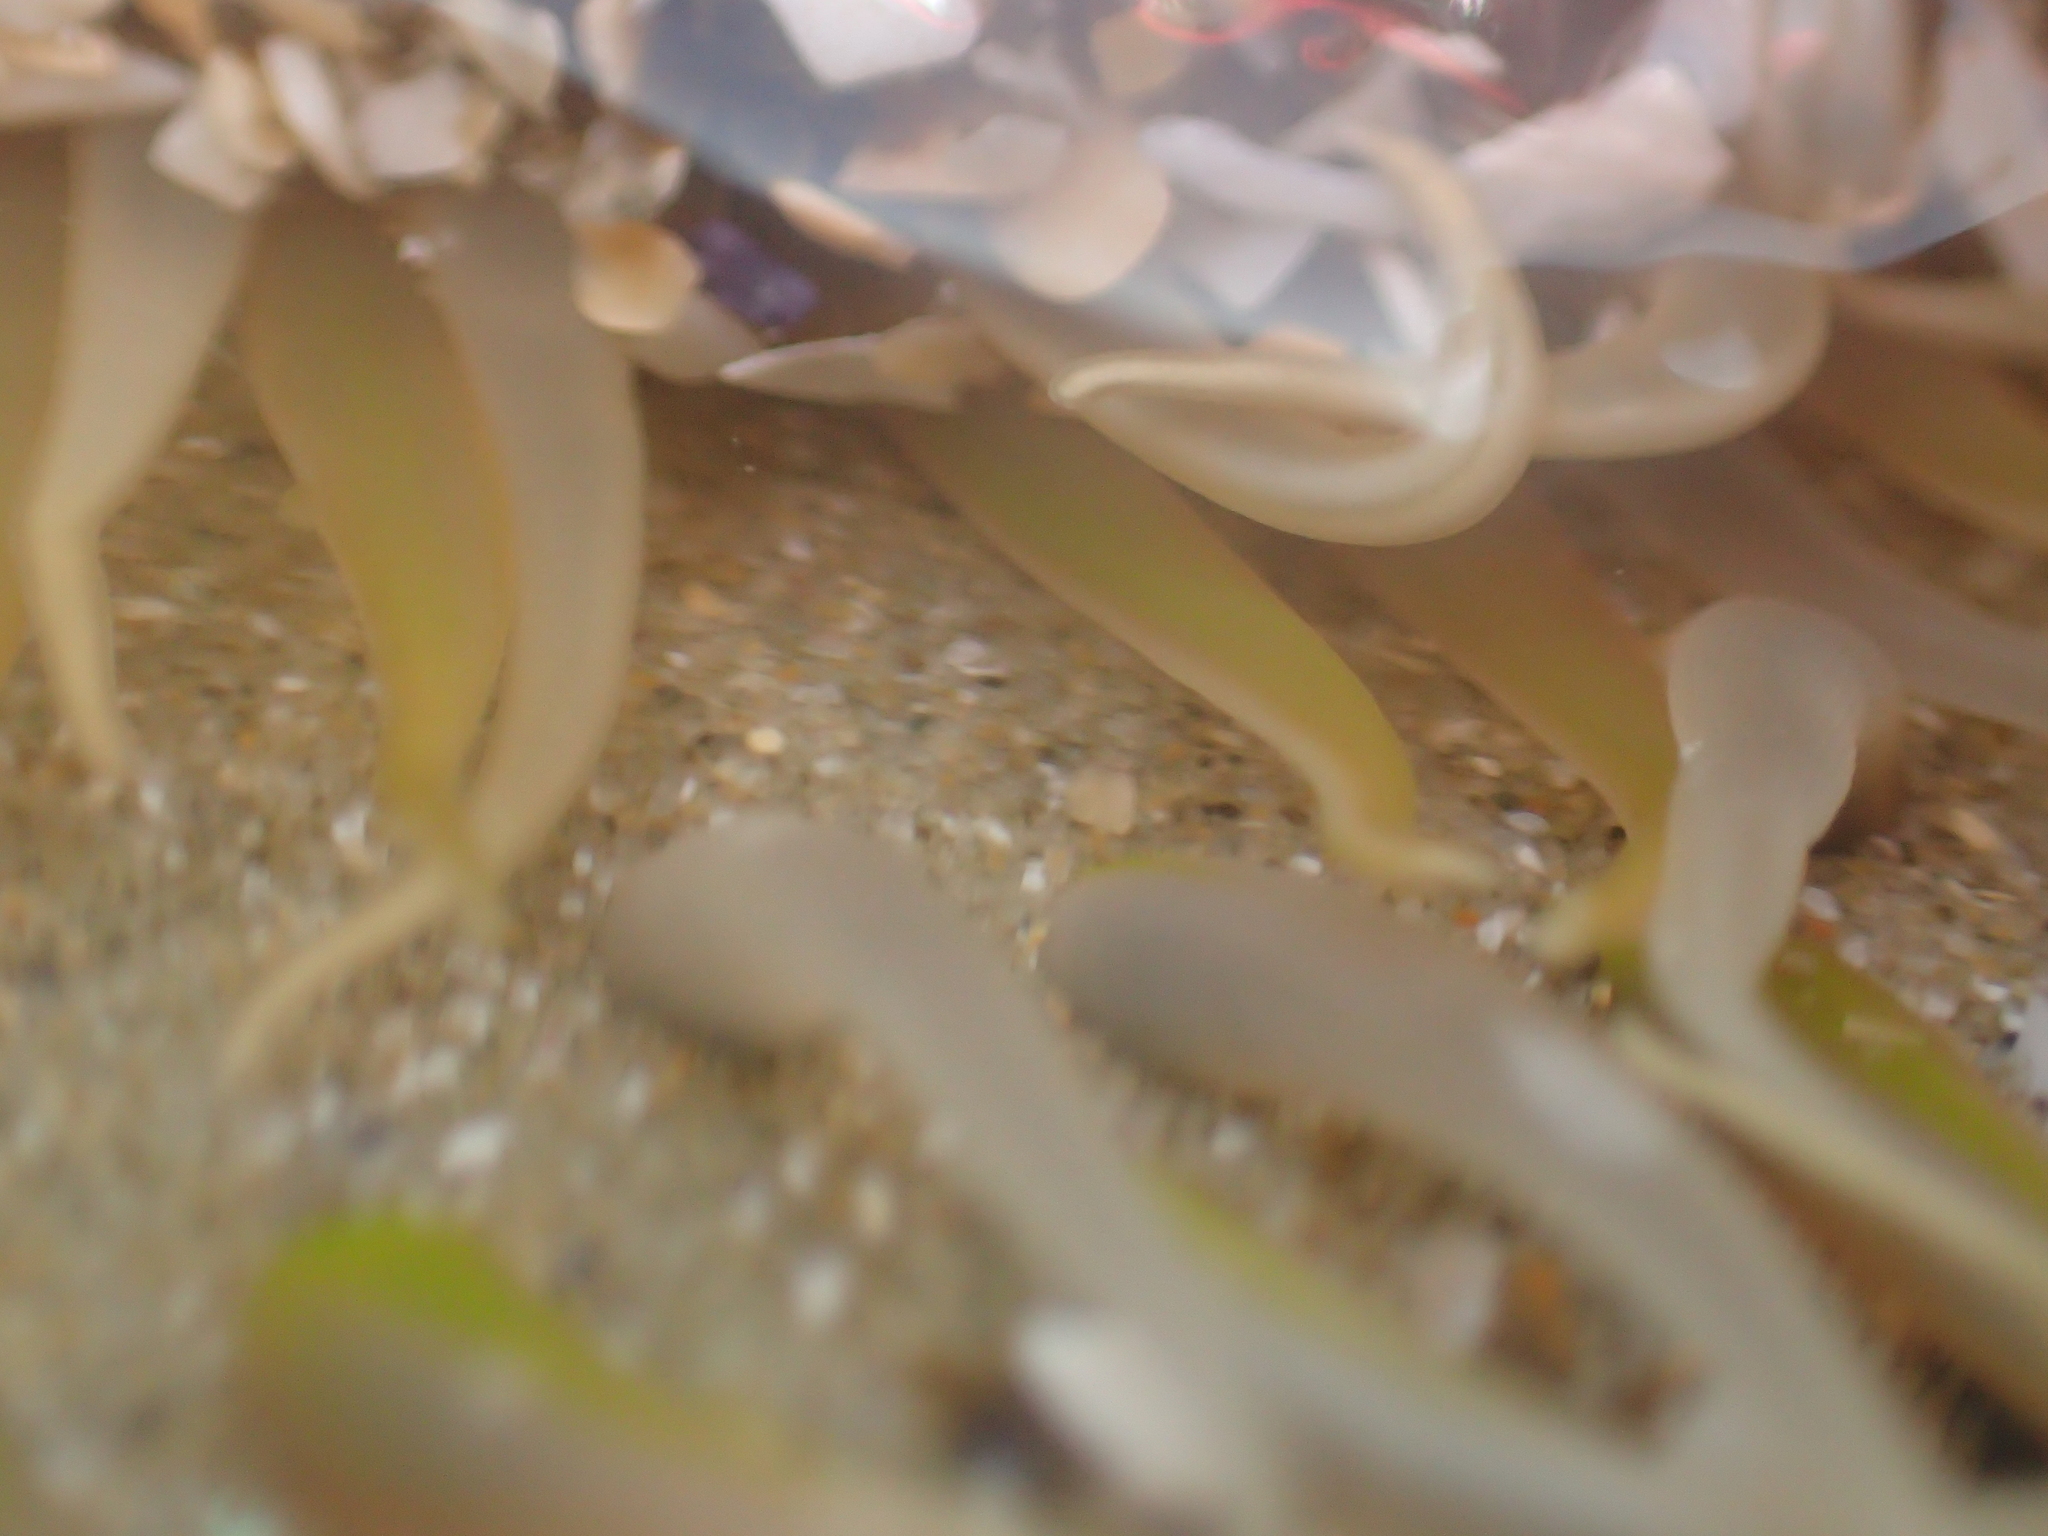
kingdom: Animalia
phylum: Cnidaria
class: Anthozoa
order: Actiniaria
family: Actiniidae
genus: Oulactis
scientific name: Oulactis muscosa
